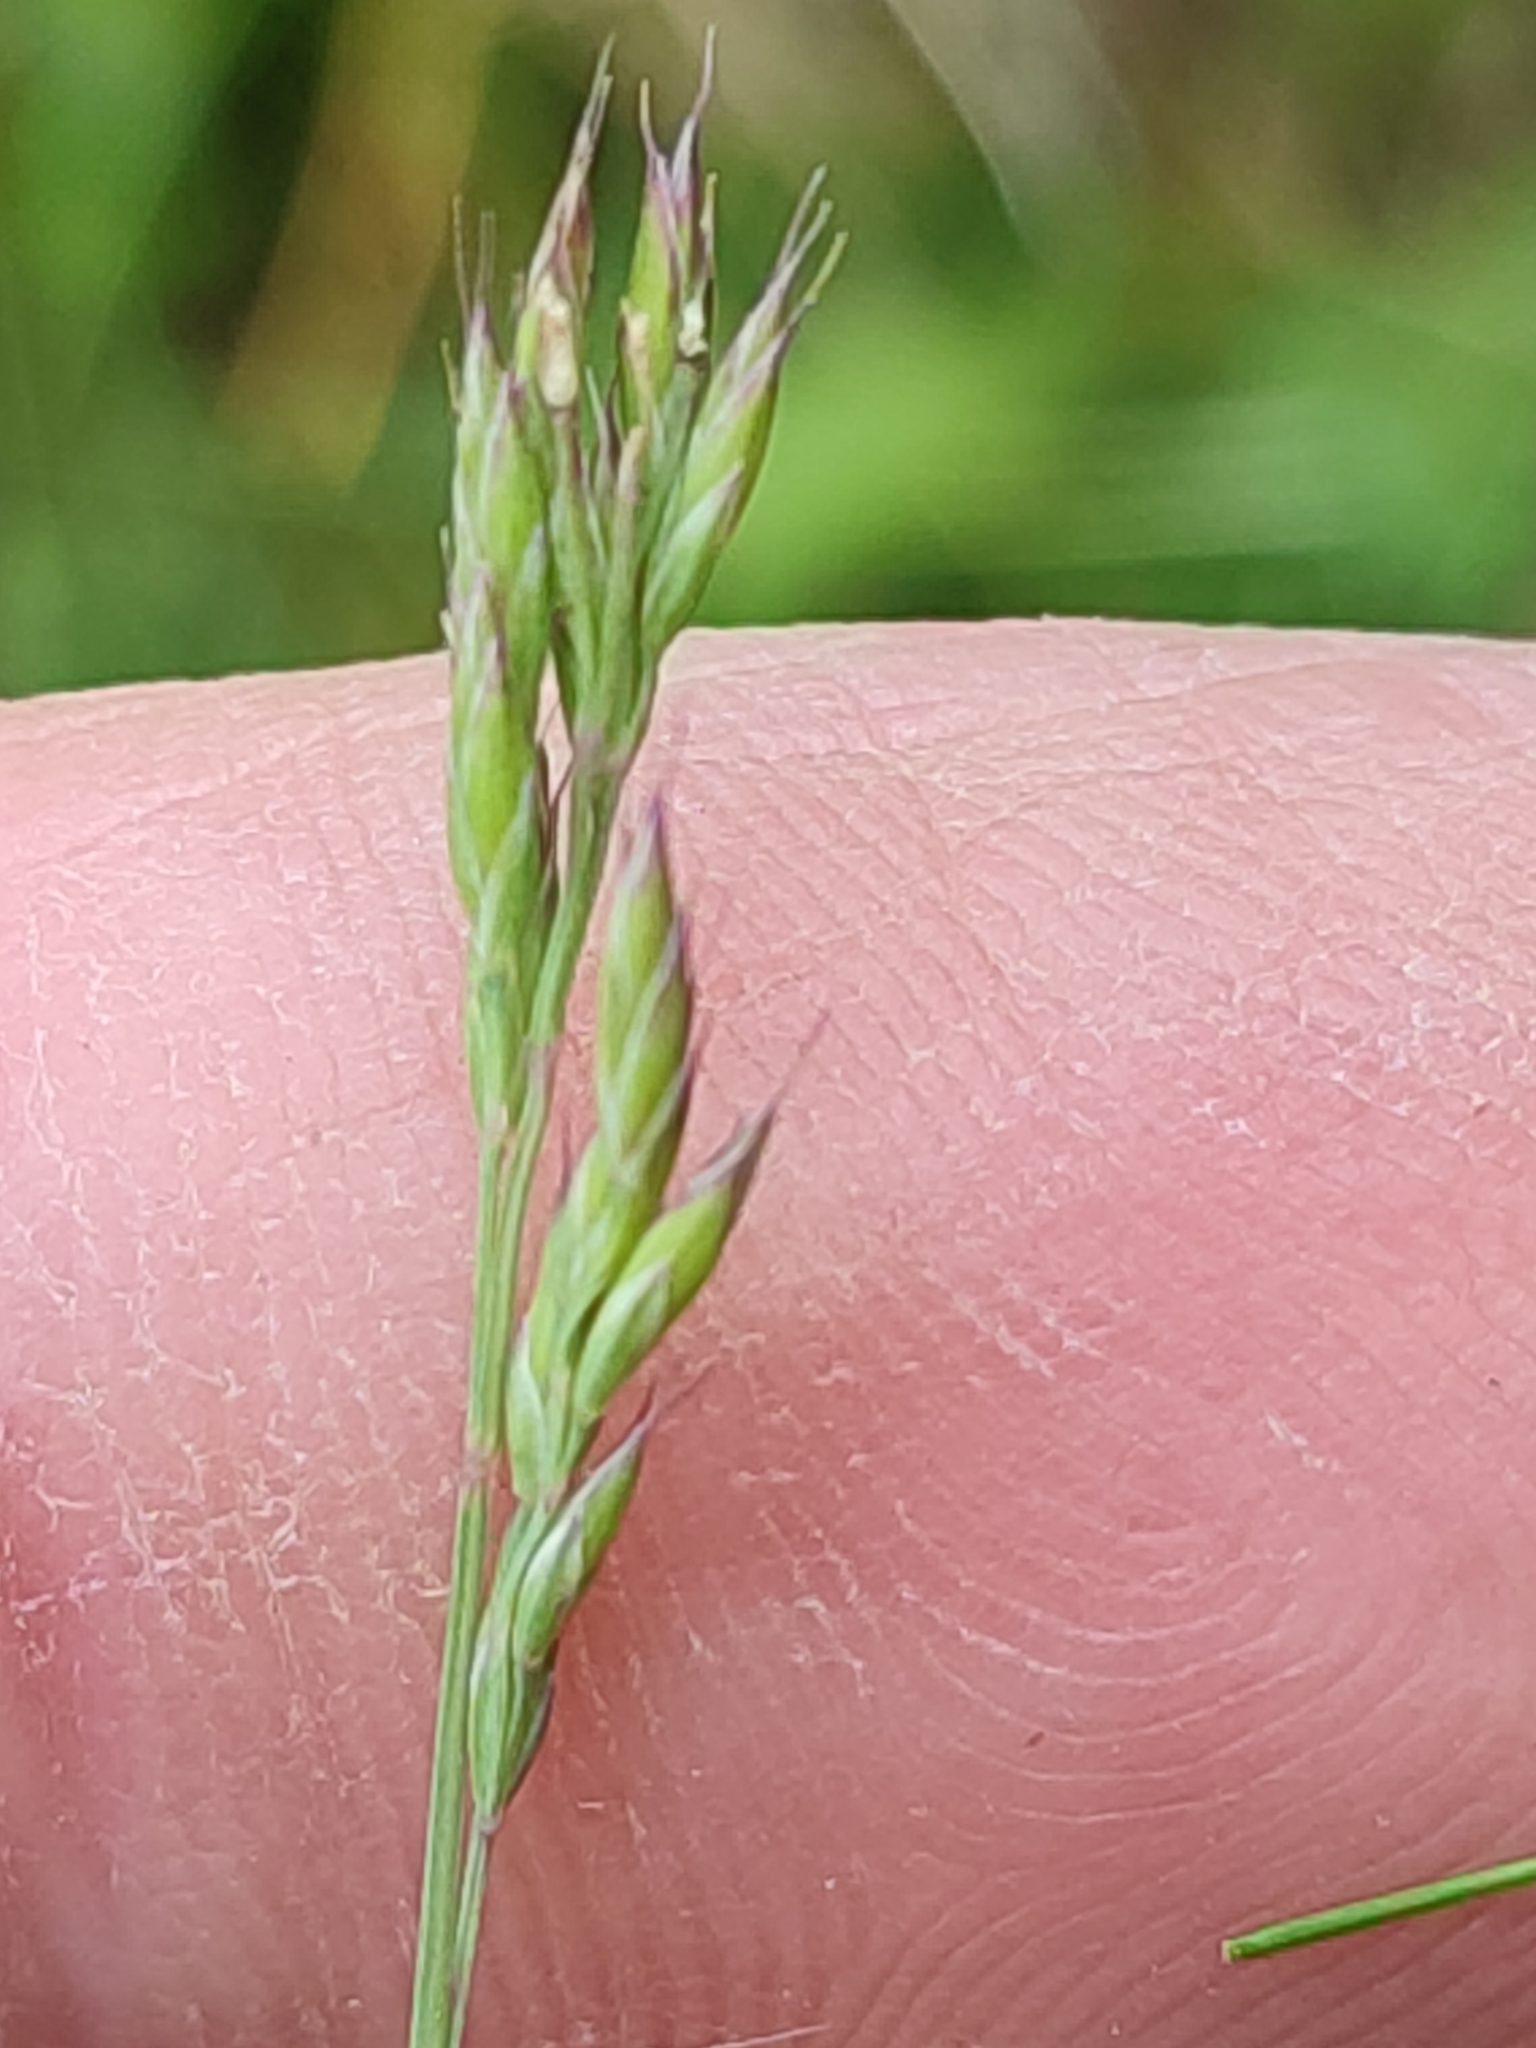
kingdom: Plantae
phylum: Tracheophyta
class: Liliopsida
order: Poales
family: Poaceae
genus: Festuca
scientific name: Festuca rubra
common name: Red fescue
